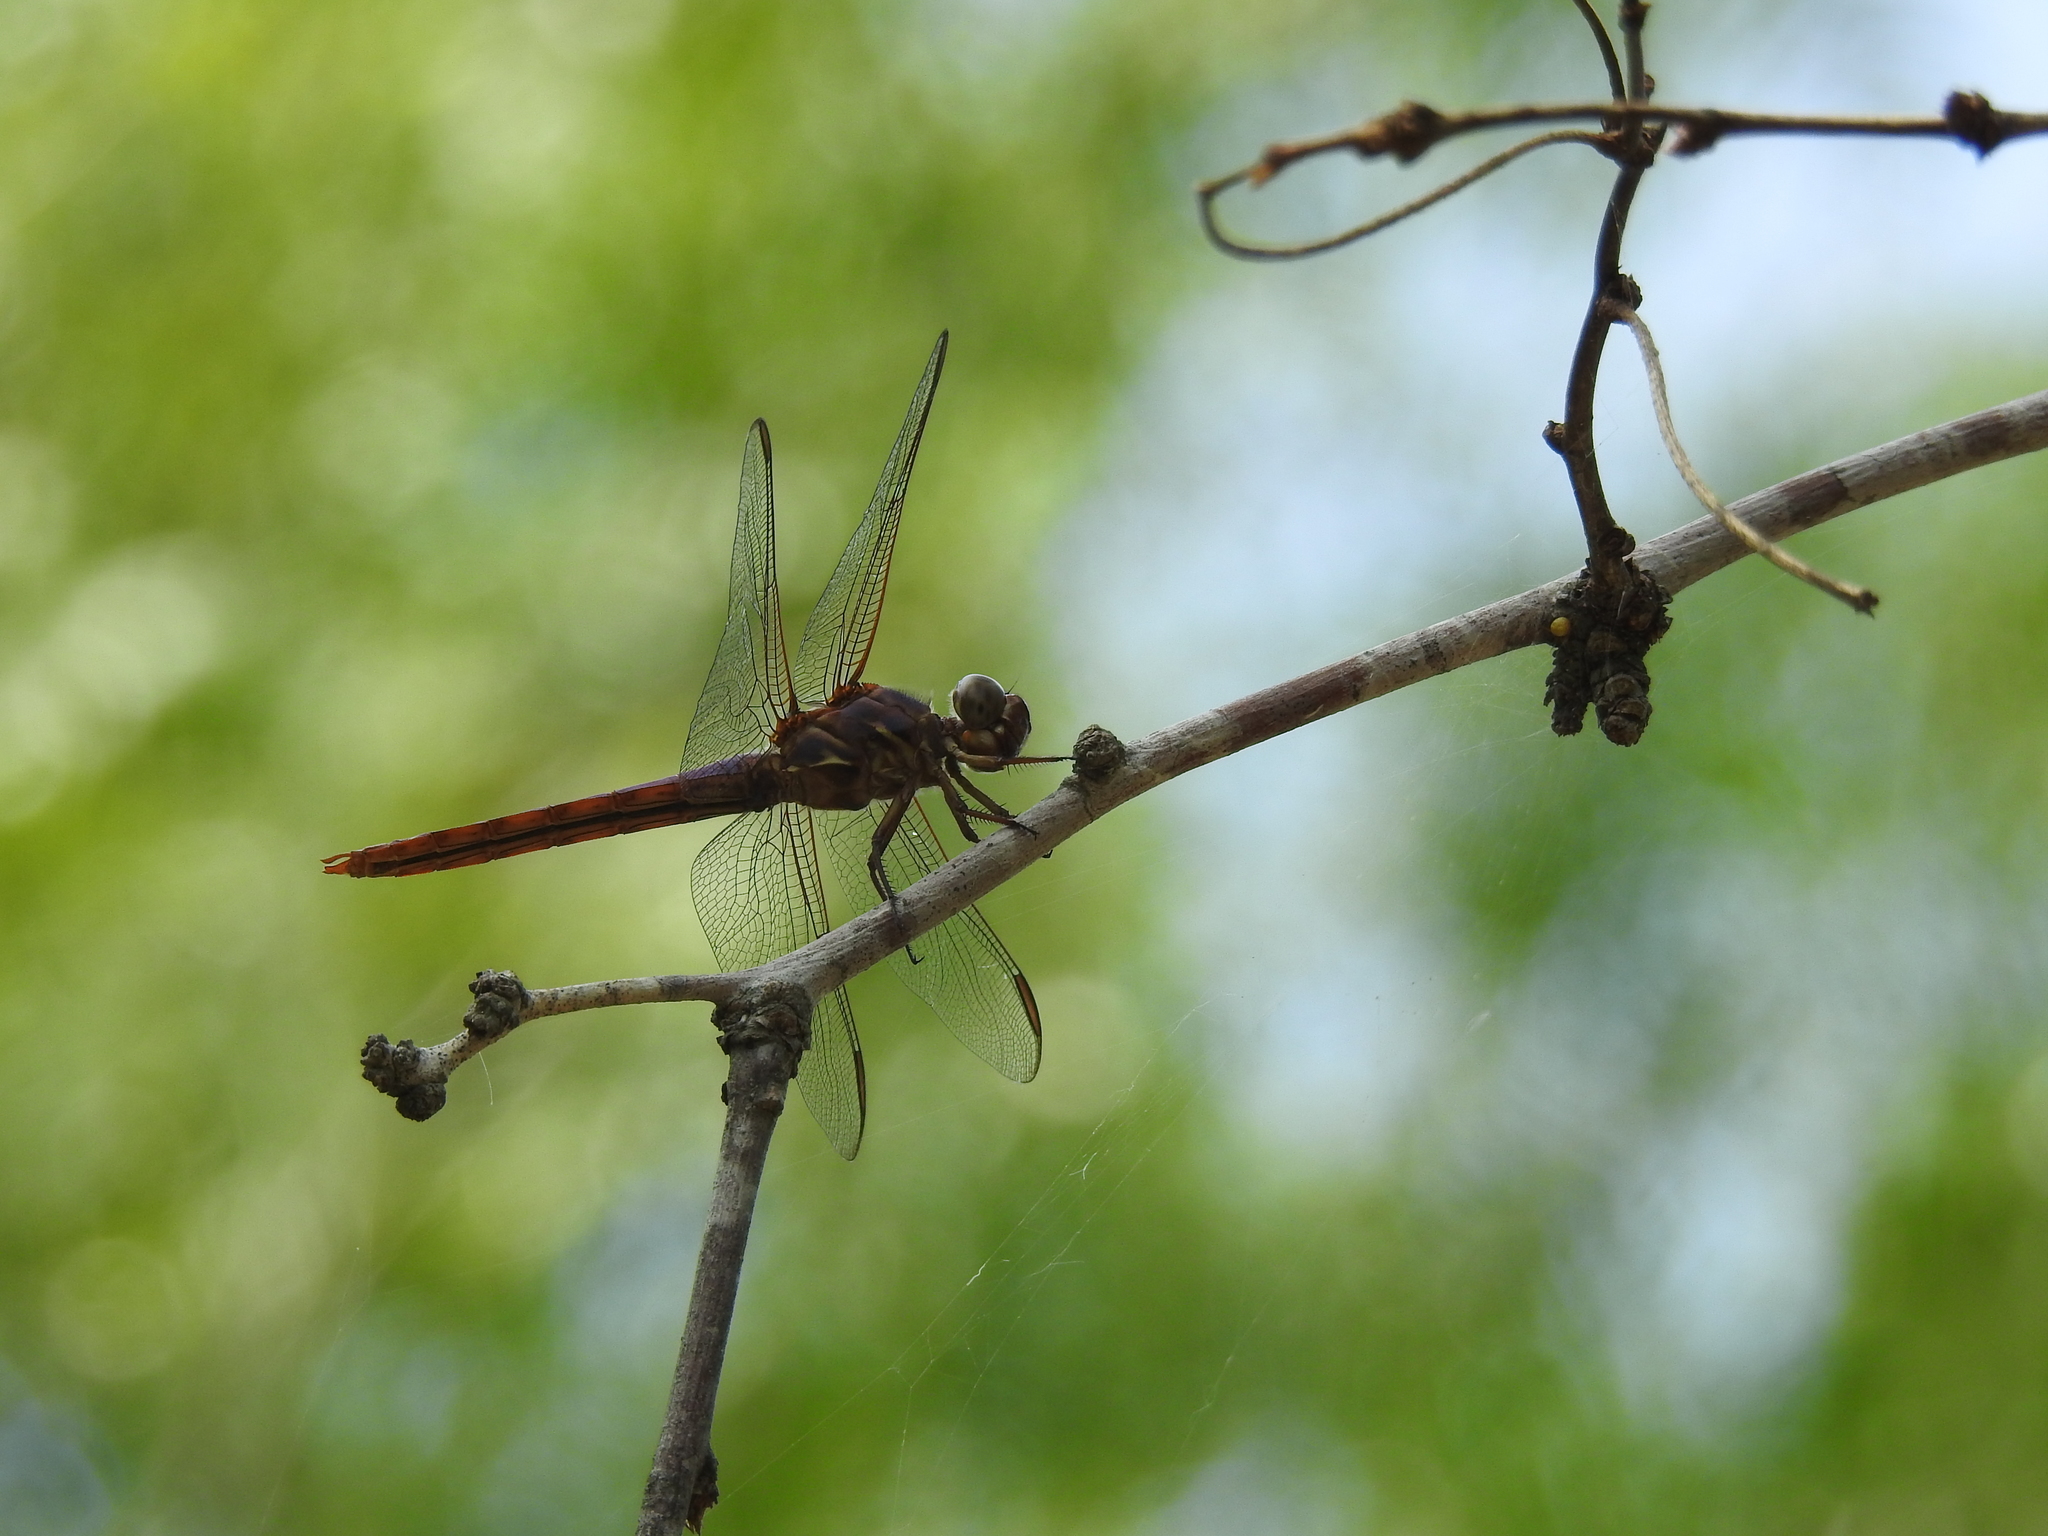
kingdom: Animalia
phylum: Arthropoda
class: Insecta
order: Odonata
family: Libellulidae
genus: Orthemis
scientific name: Orthemis ferruginea
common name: Roseate skimmer
